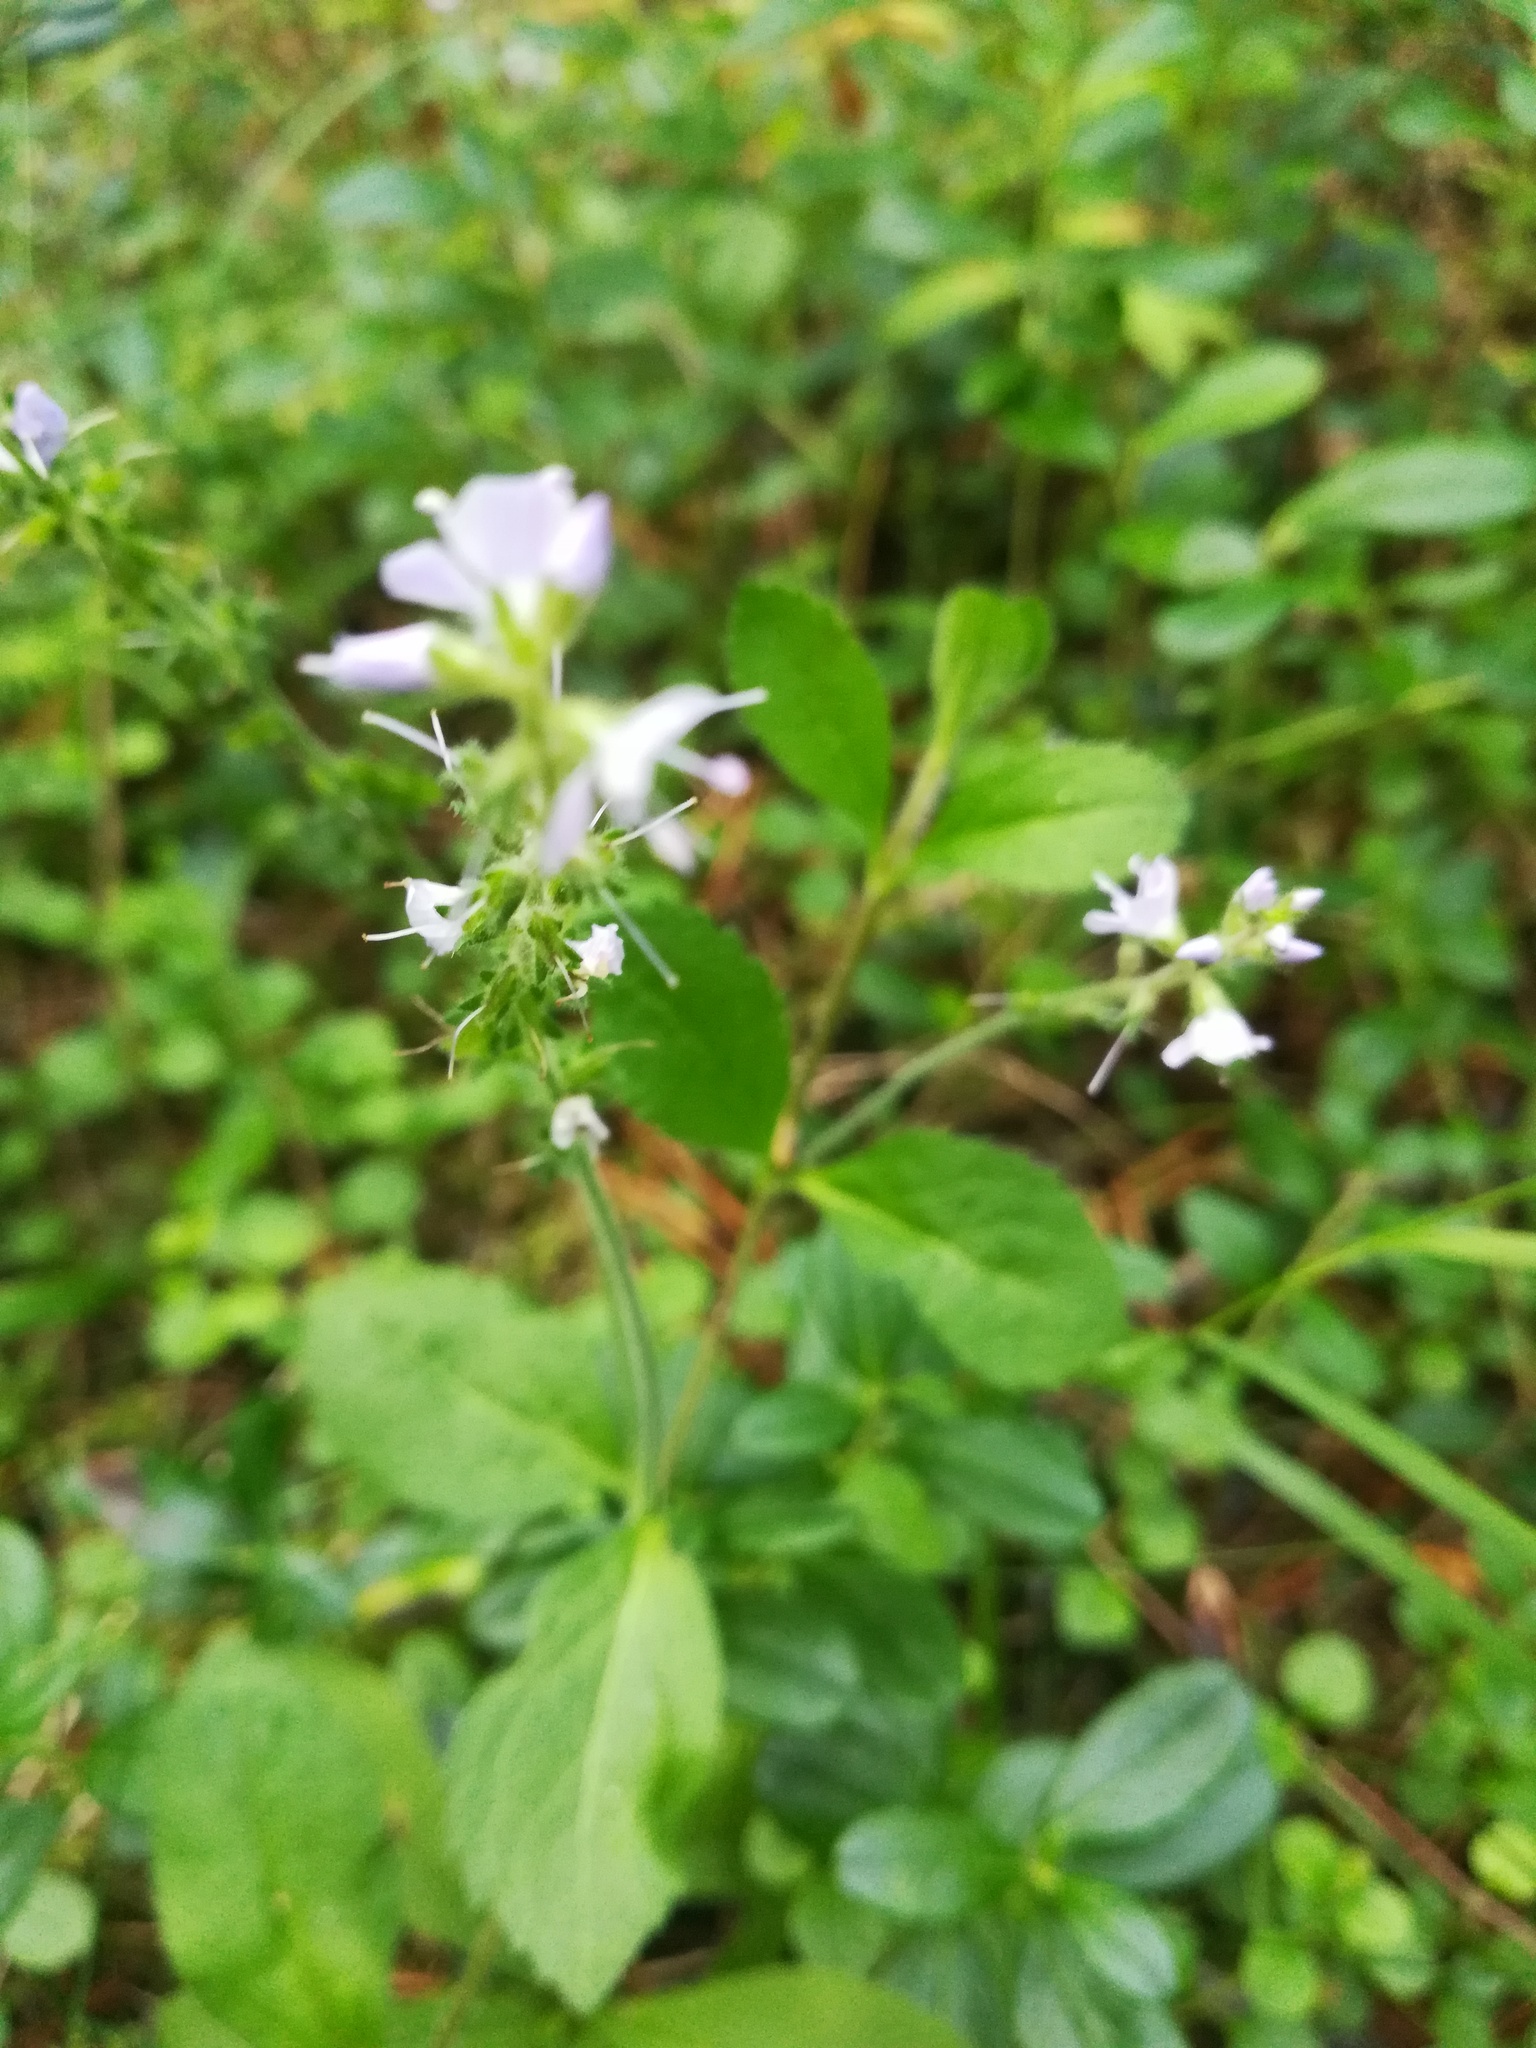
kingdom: Plantae
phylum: Tracheophyta
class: Magnoliopsida
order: Lamiales
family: Plantaginaceae
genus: Veronica
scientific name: Veronica officinalis
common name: Common speedwell
